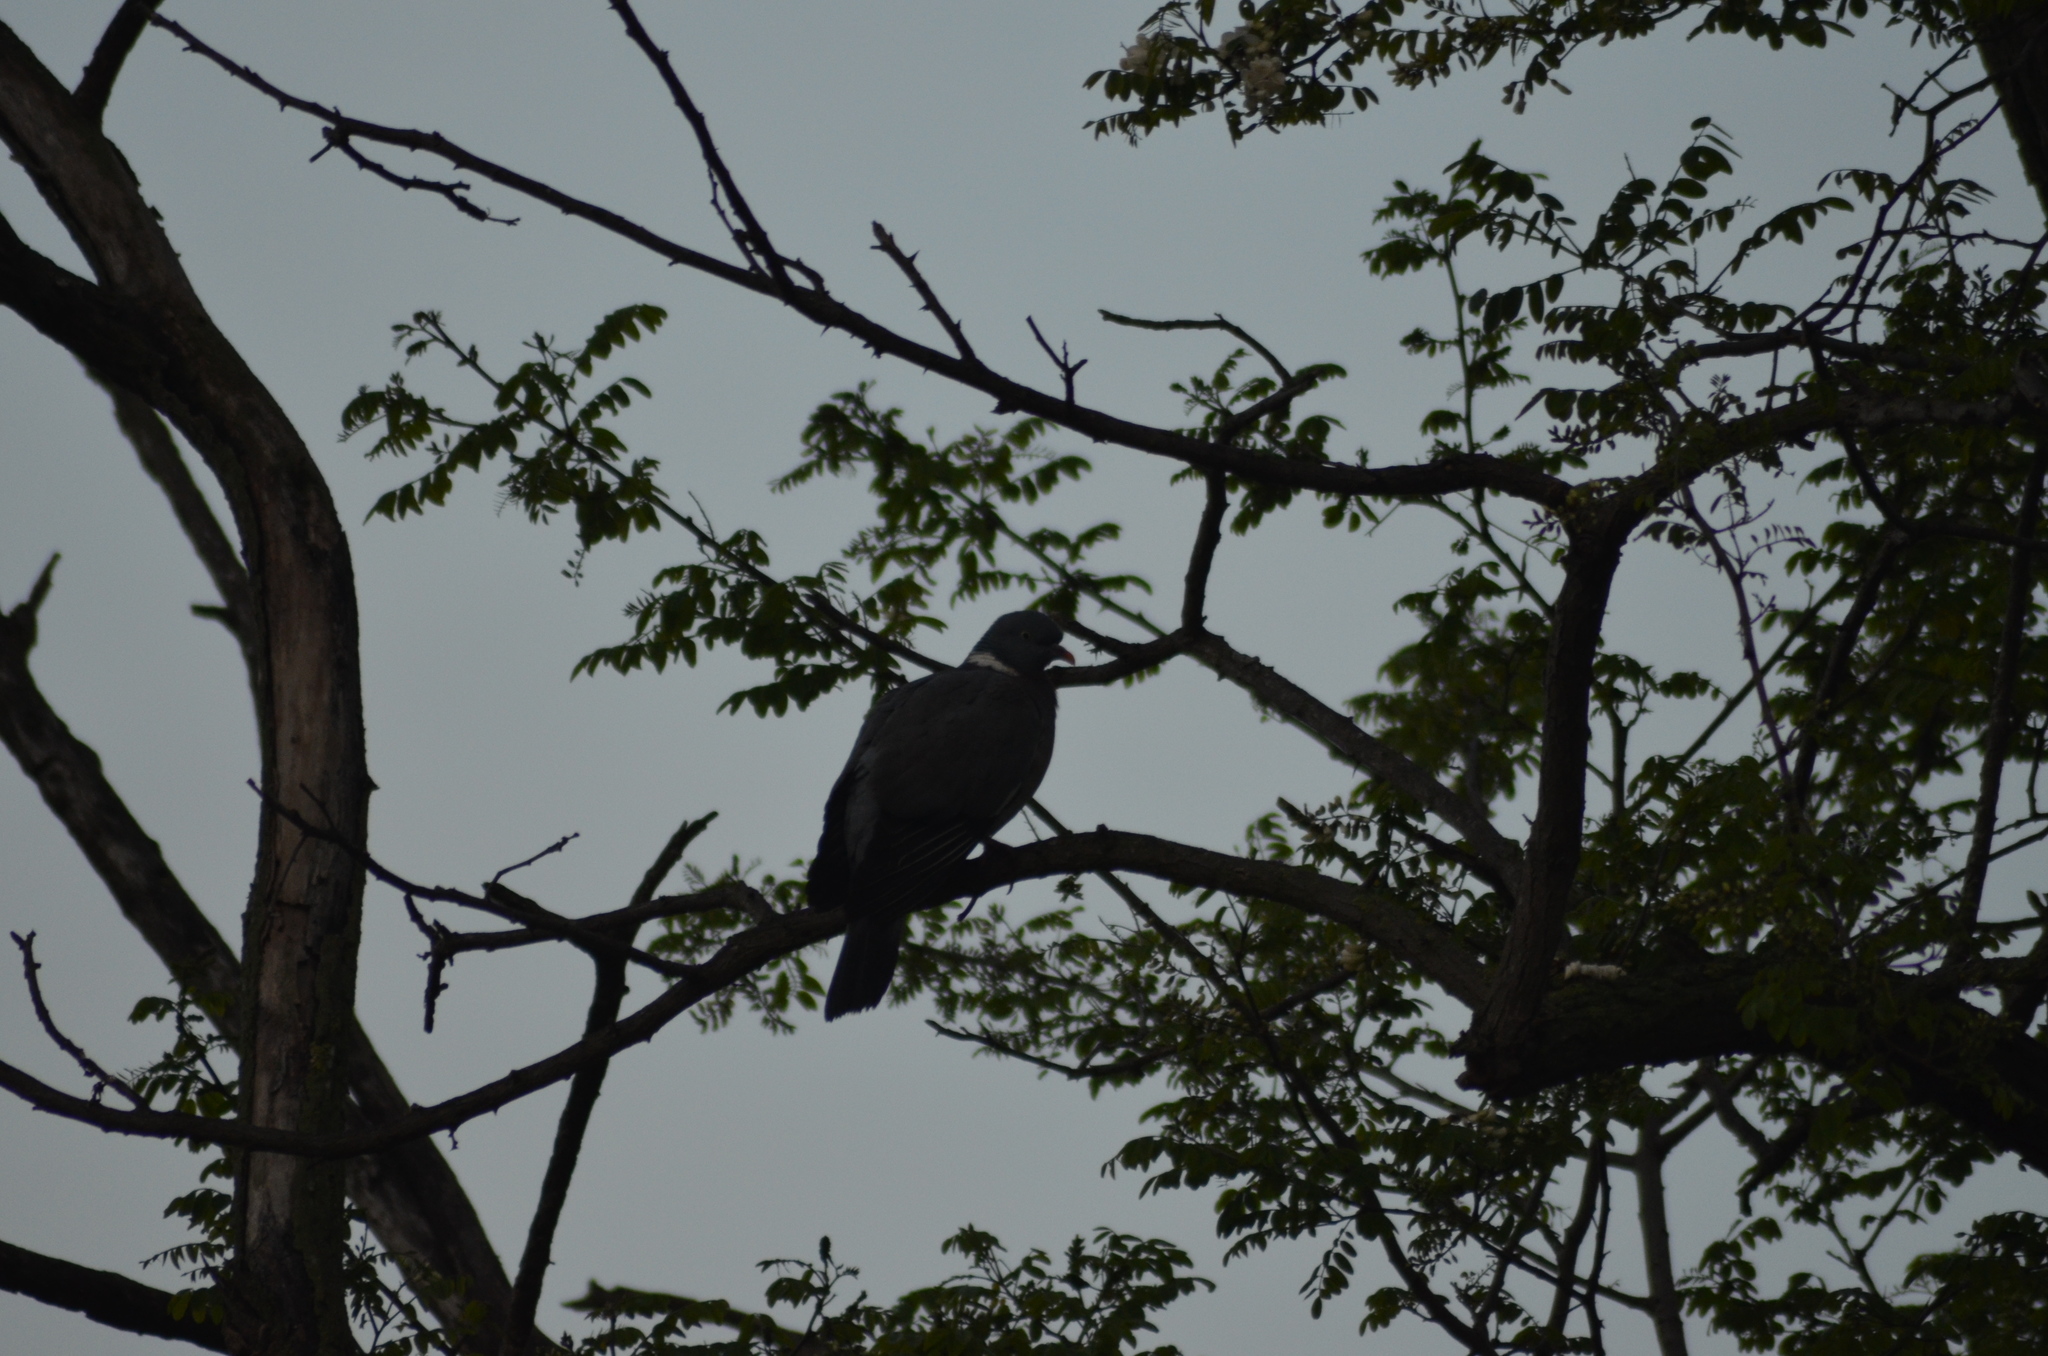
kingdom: Animalia
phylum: Chordata
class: Aves
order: Columbiformes
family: Columbidae
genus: Columba
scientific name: Columba palumbus
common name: Common wood pigeon
